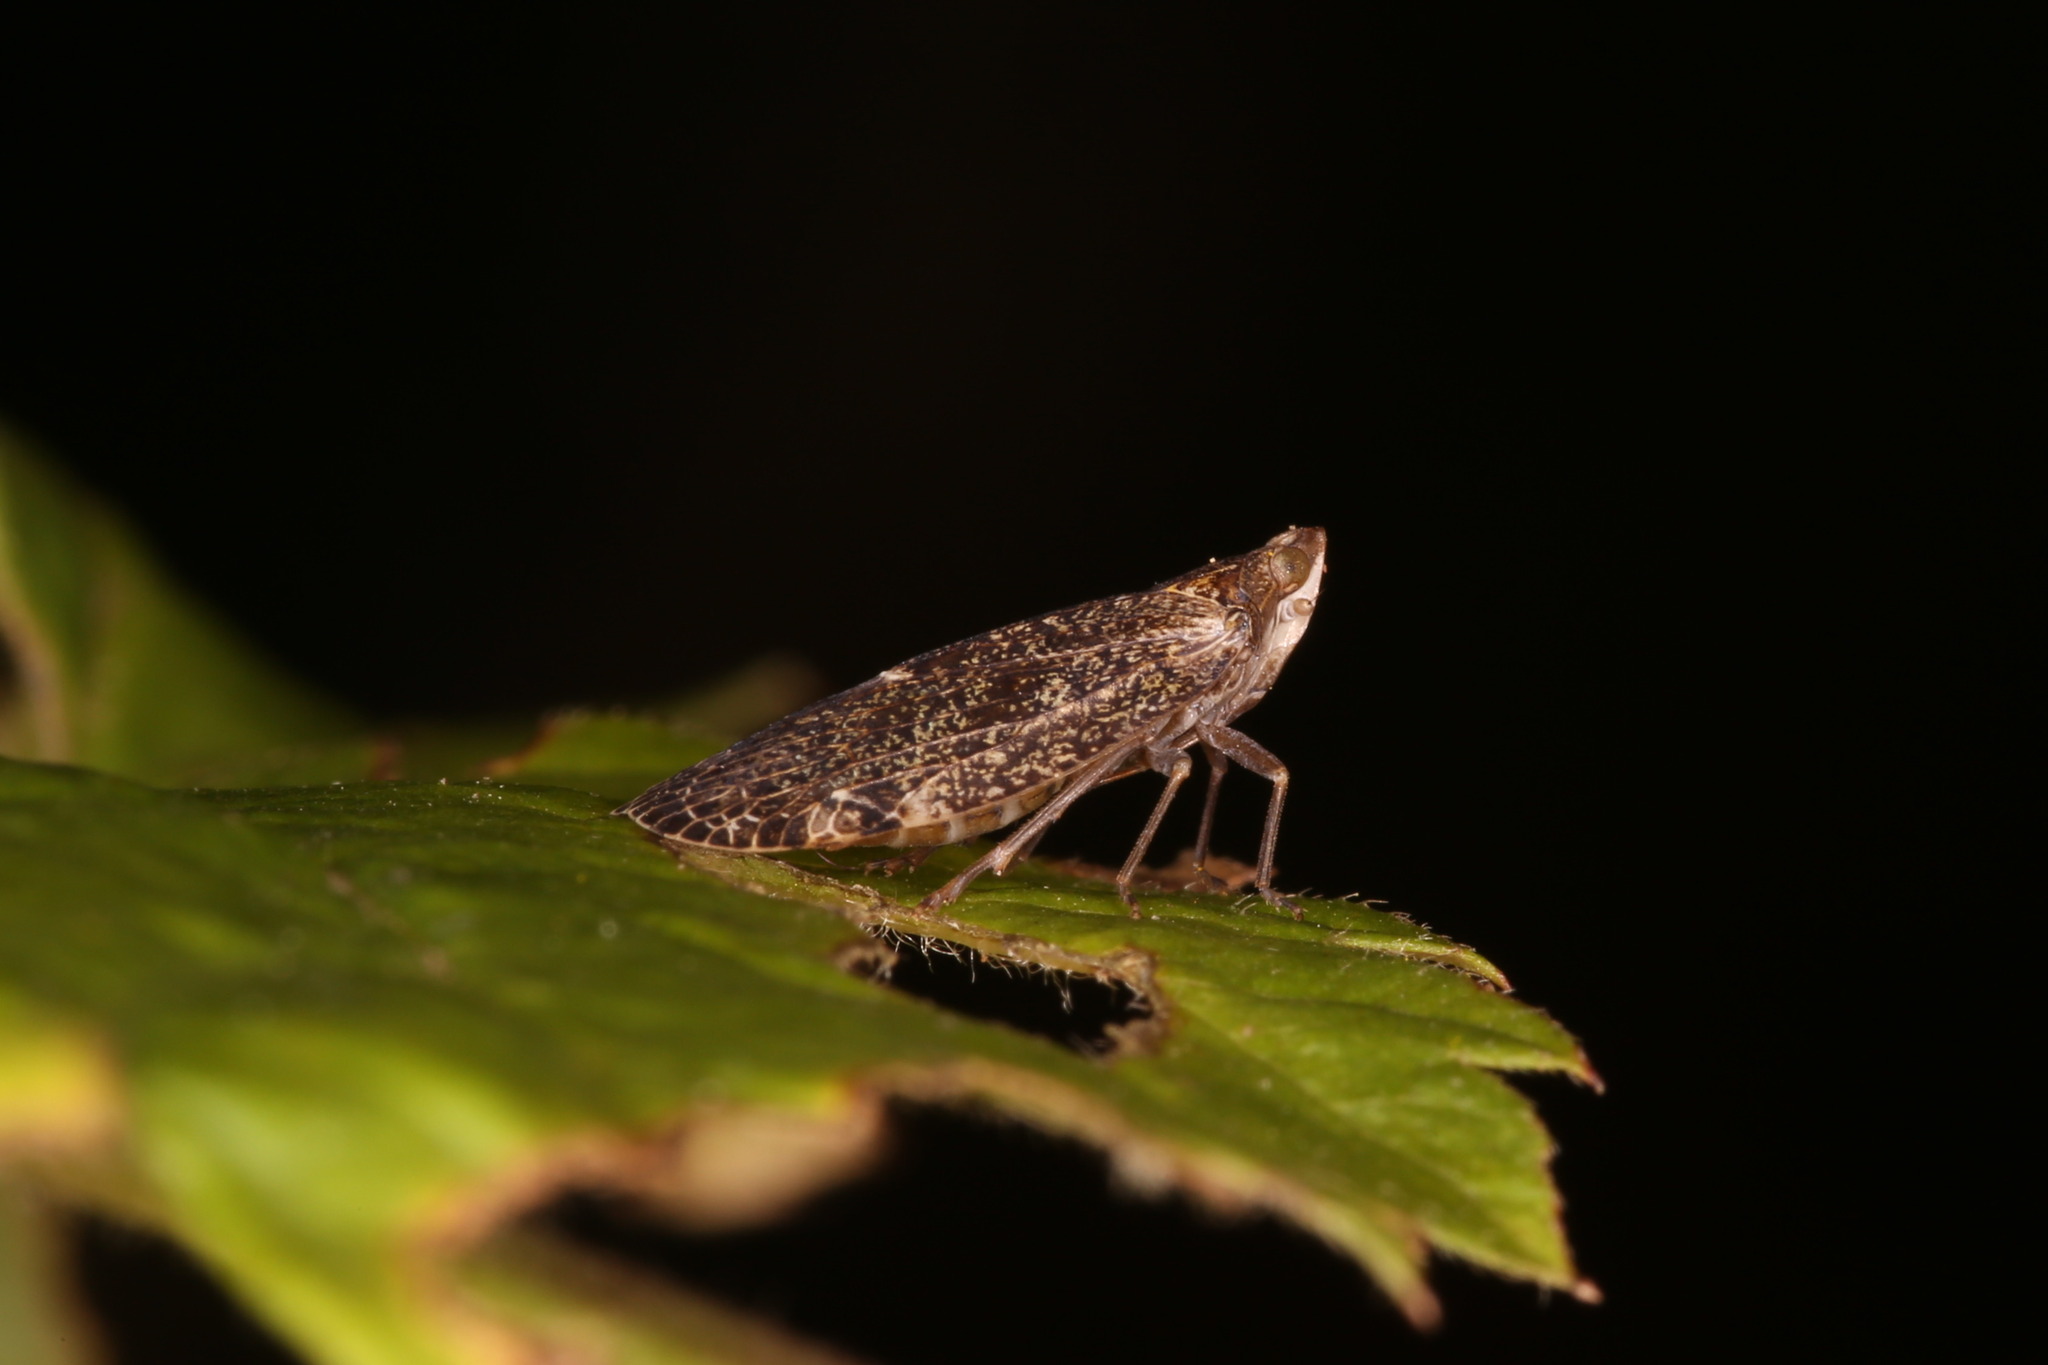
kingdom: Animalia
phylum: Arthropoda
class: Insecta
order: Hemiptera
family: Achilidae
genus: Cixidia
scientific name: Cixidia pilatoi
